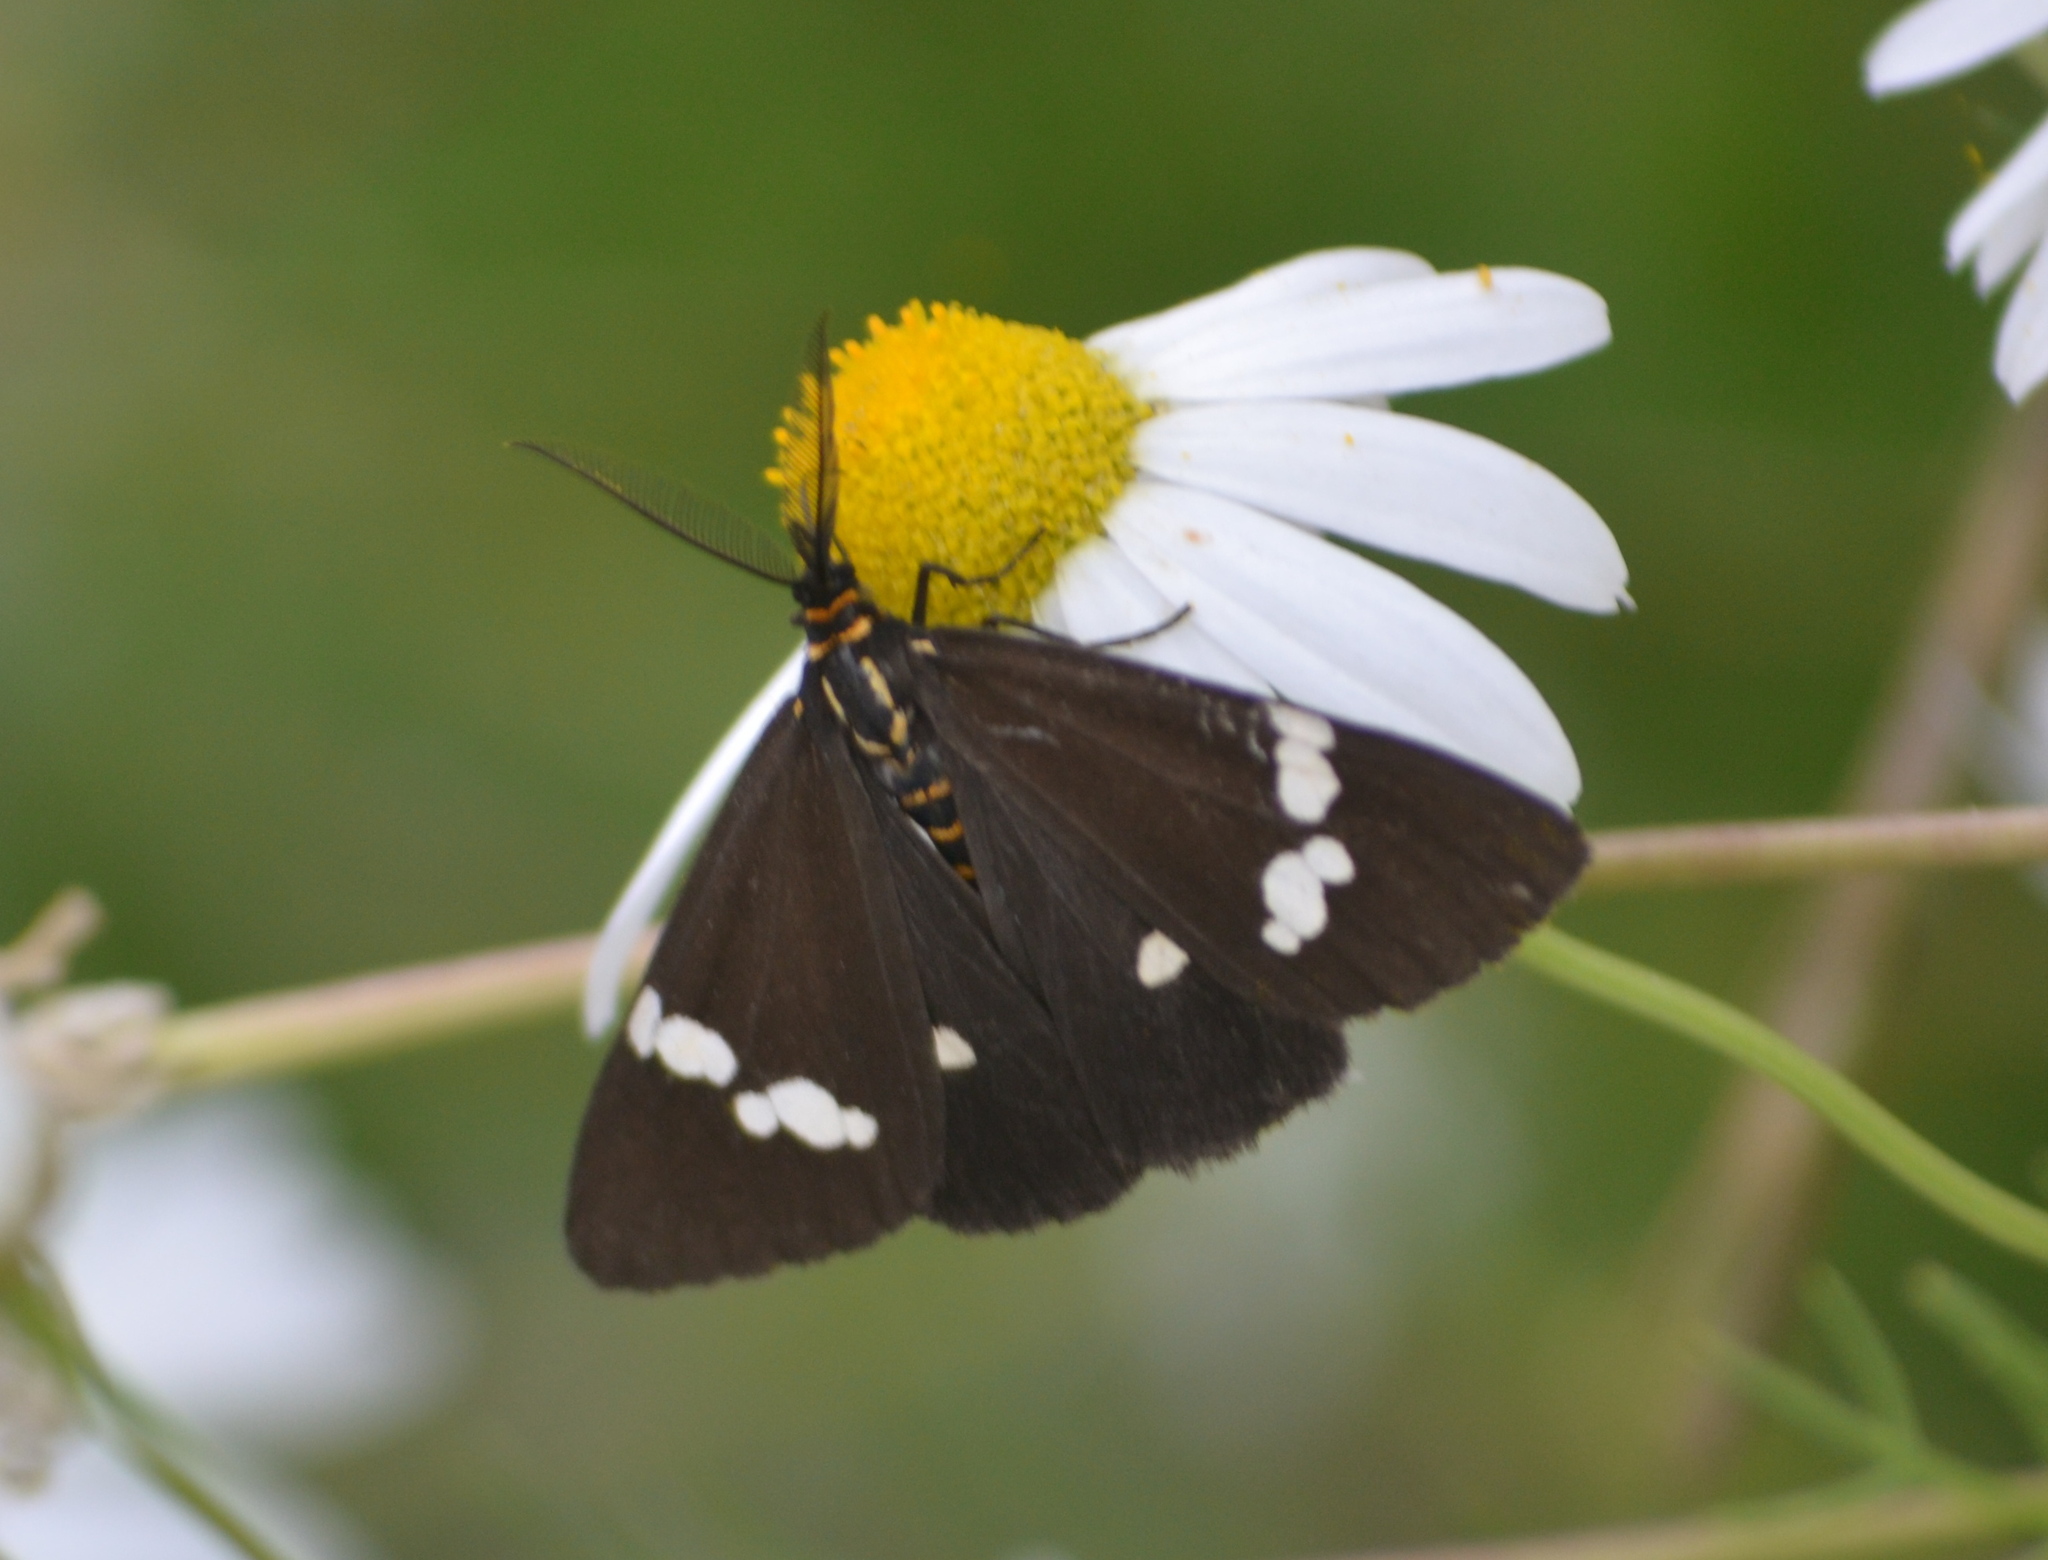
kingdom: Animalia
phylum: Arthropoda
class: Insecta
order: Lepidoptera
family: Erebidae
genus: Nyctemera
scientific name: Nyctemera annulatum
